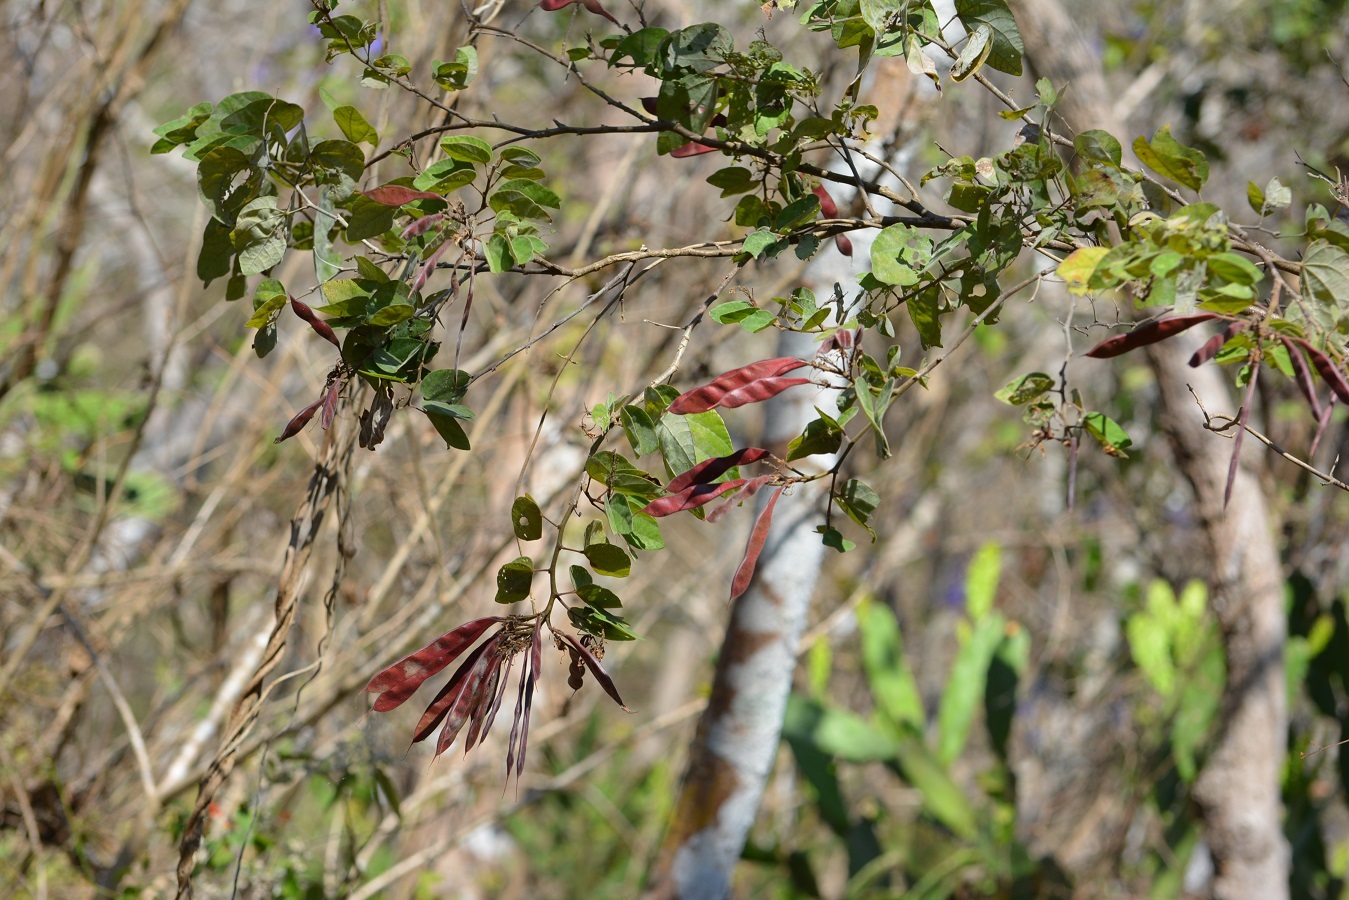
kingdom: Plantae
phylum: Tracheophyta
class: Magnoliopsida
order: Fabales
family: Fabaceae
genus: Bauhinia
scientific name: Bauhinia divaricata
